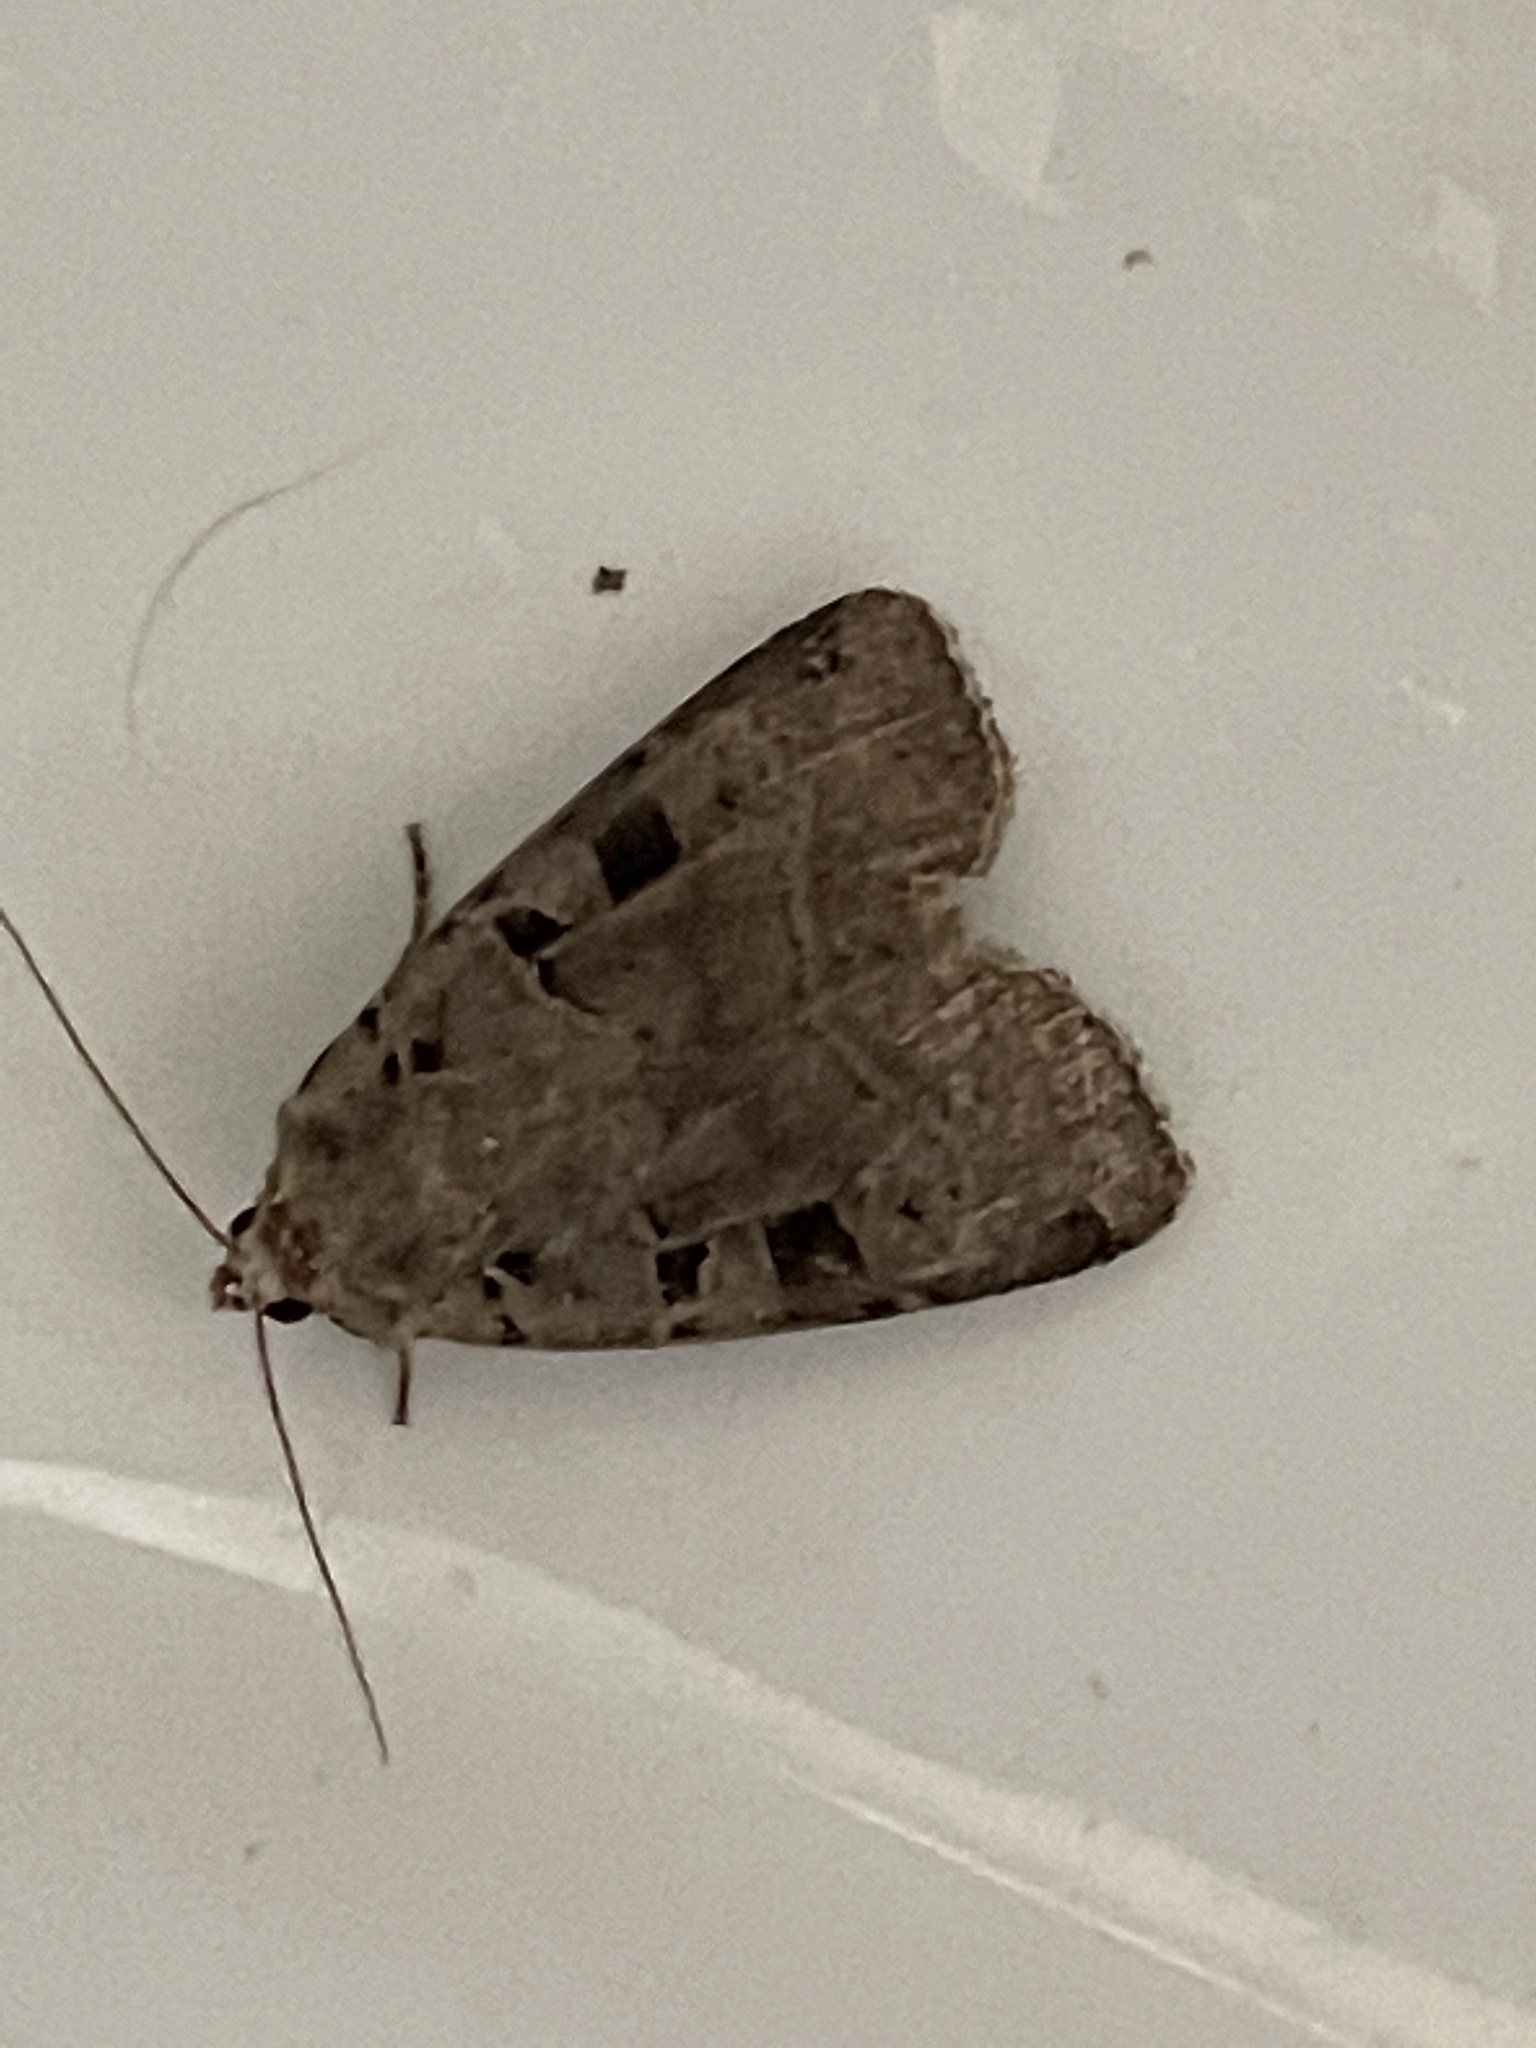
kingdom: Animalia
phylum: Arthropoda
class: Insecta
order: Lepidoptera
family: Noctuidae
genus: Xestia
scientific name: Xestia triangulum
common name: Double square-spot
